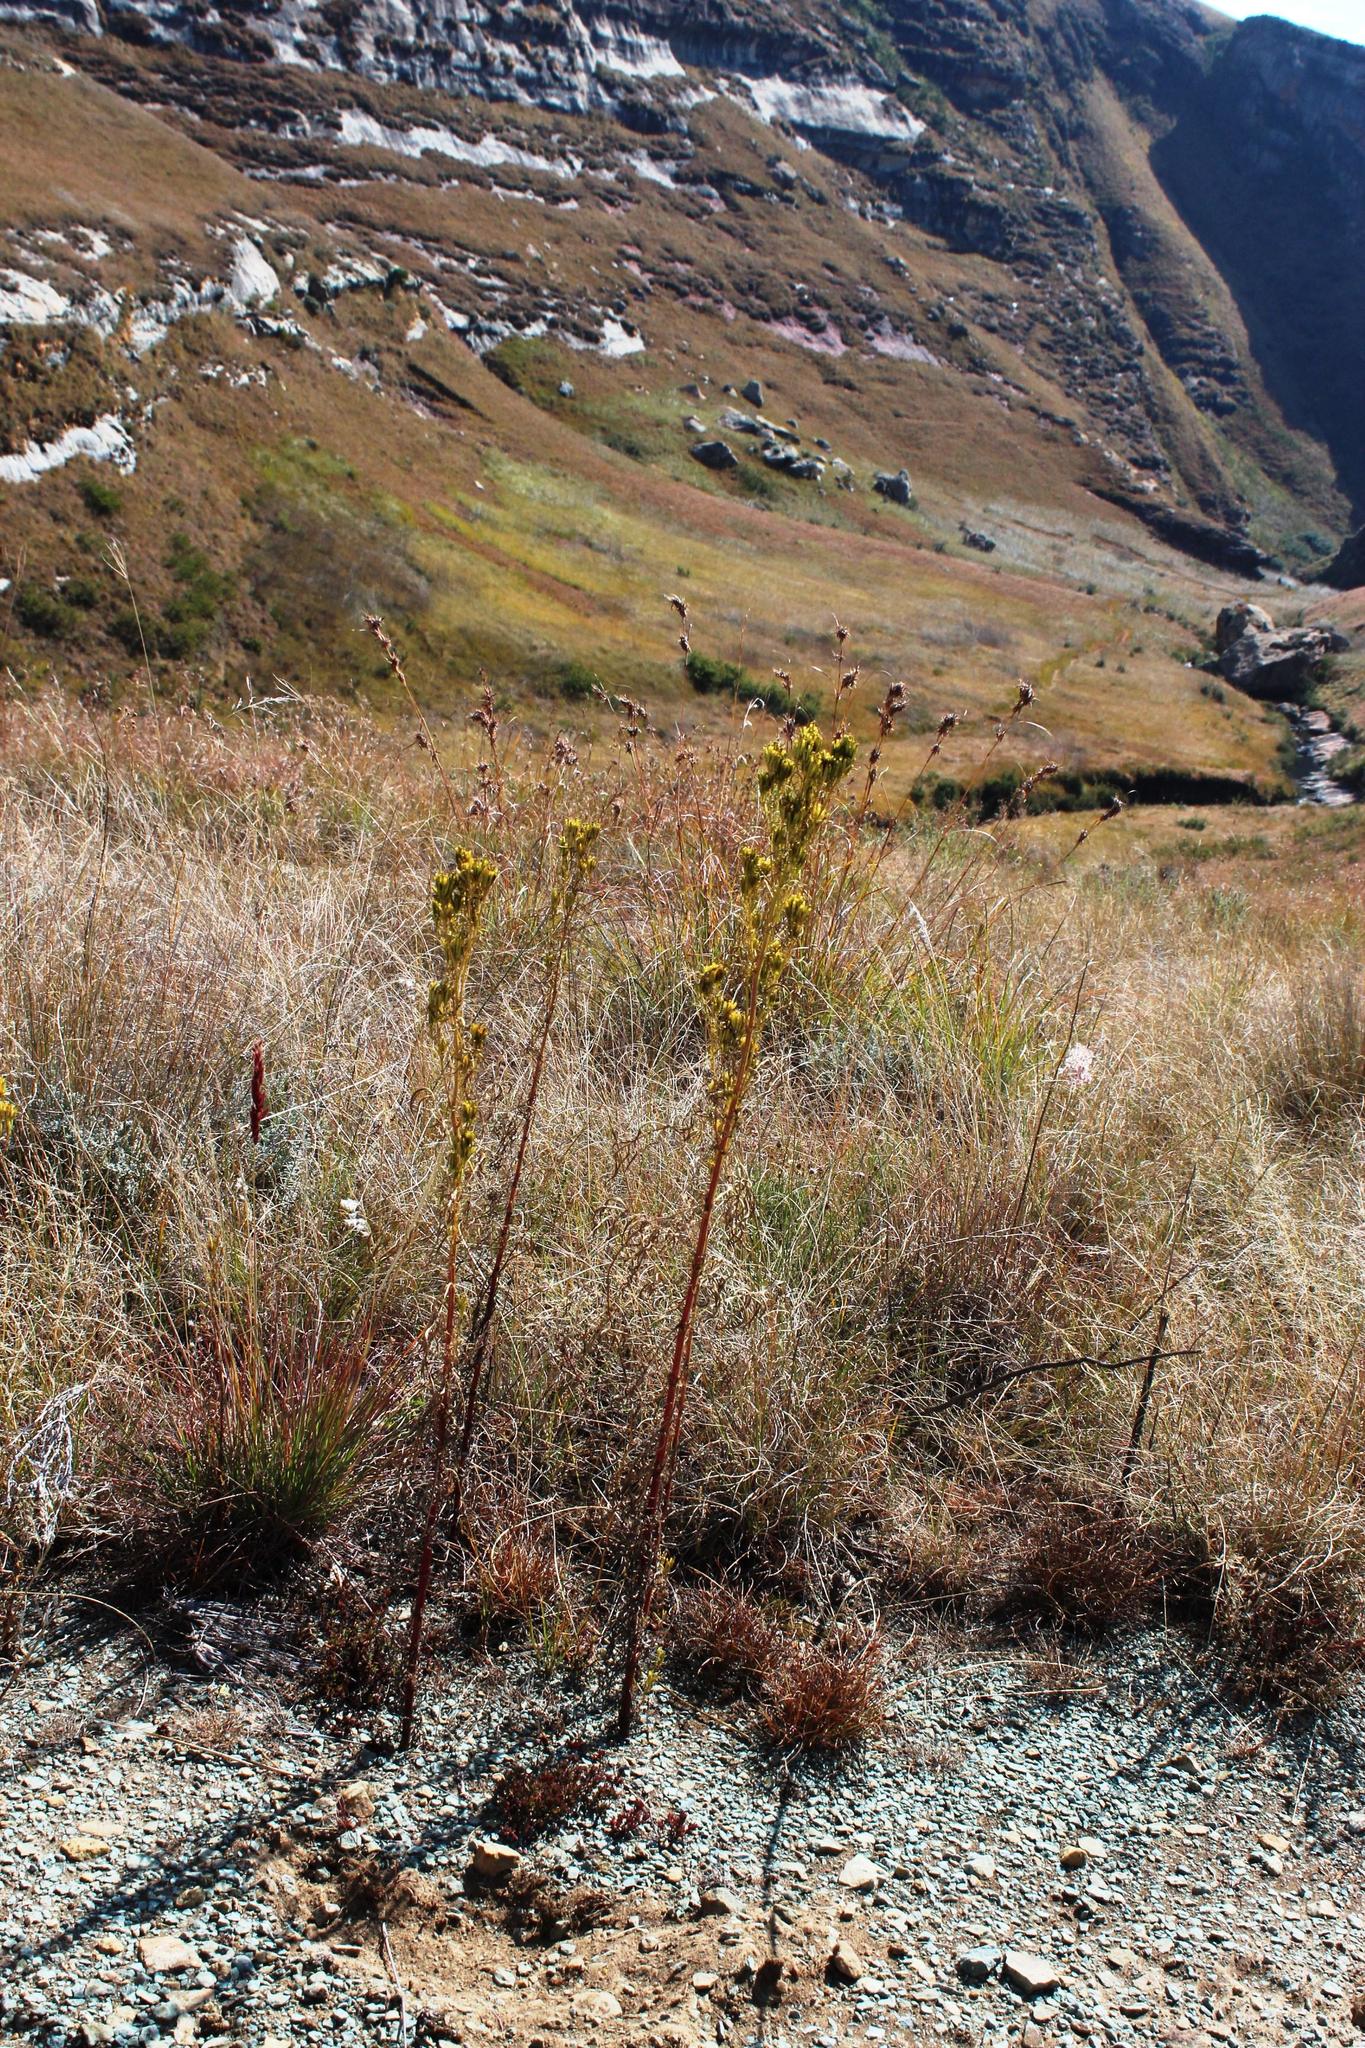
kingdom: Plantae
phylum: Tracheophyta
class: Magnoliopsida
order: Asterales
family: Asteraceae
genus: Tagetes
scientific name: Tagetes minuta
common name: Muster john henry
